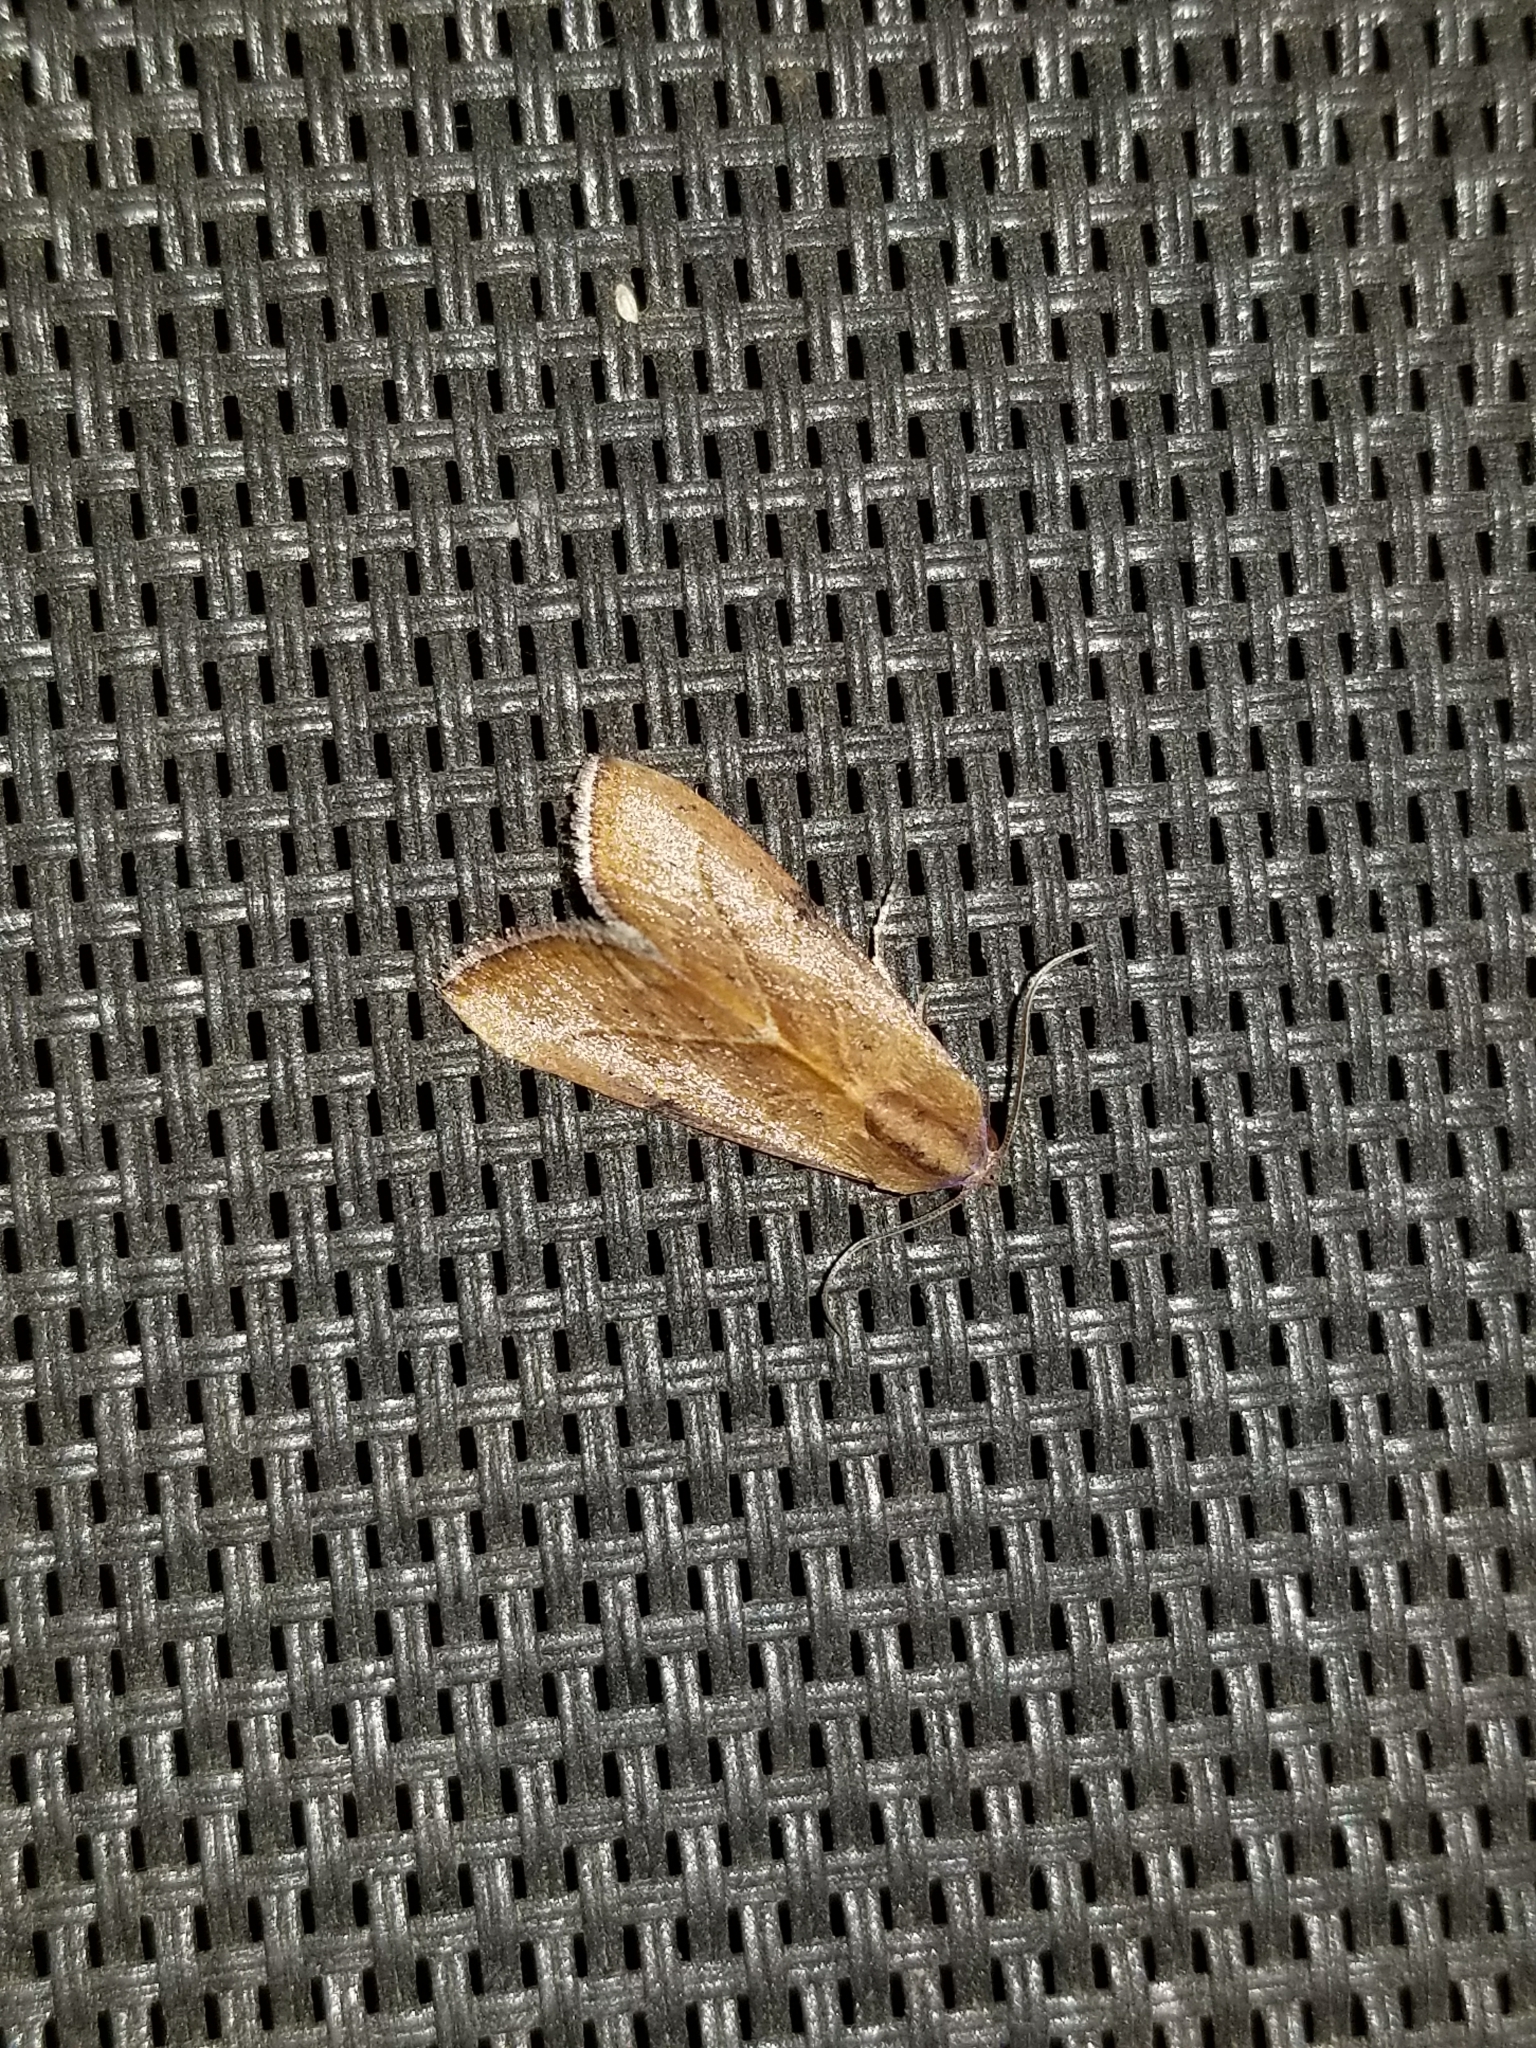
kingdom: Animalia
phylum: Arthropoda
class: Insecta
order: Lepidoptera
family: Noctuidae
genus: Galgula
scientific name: Galgula partita
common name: Wedgeling
